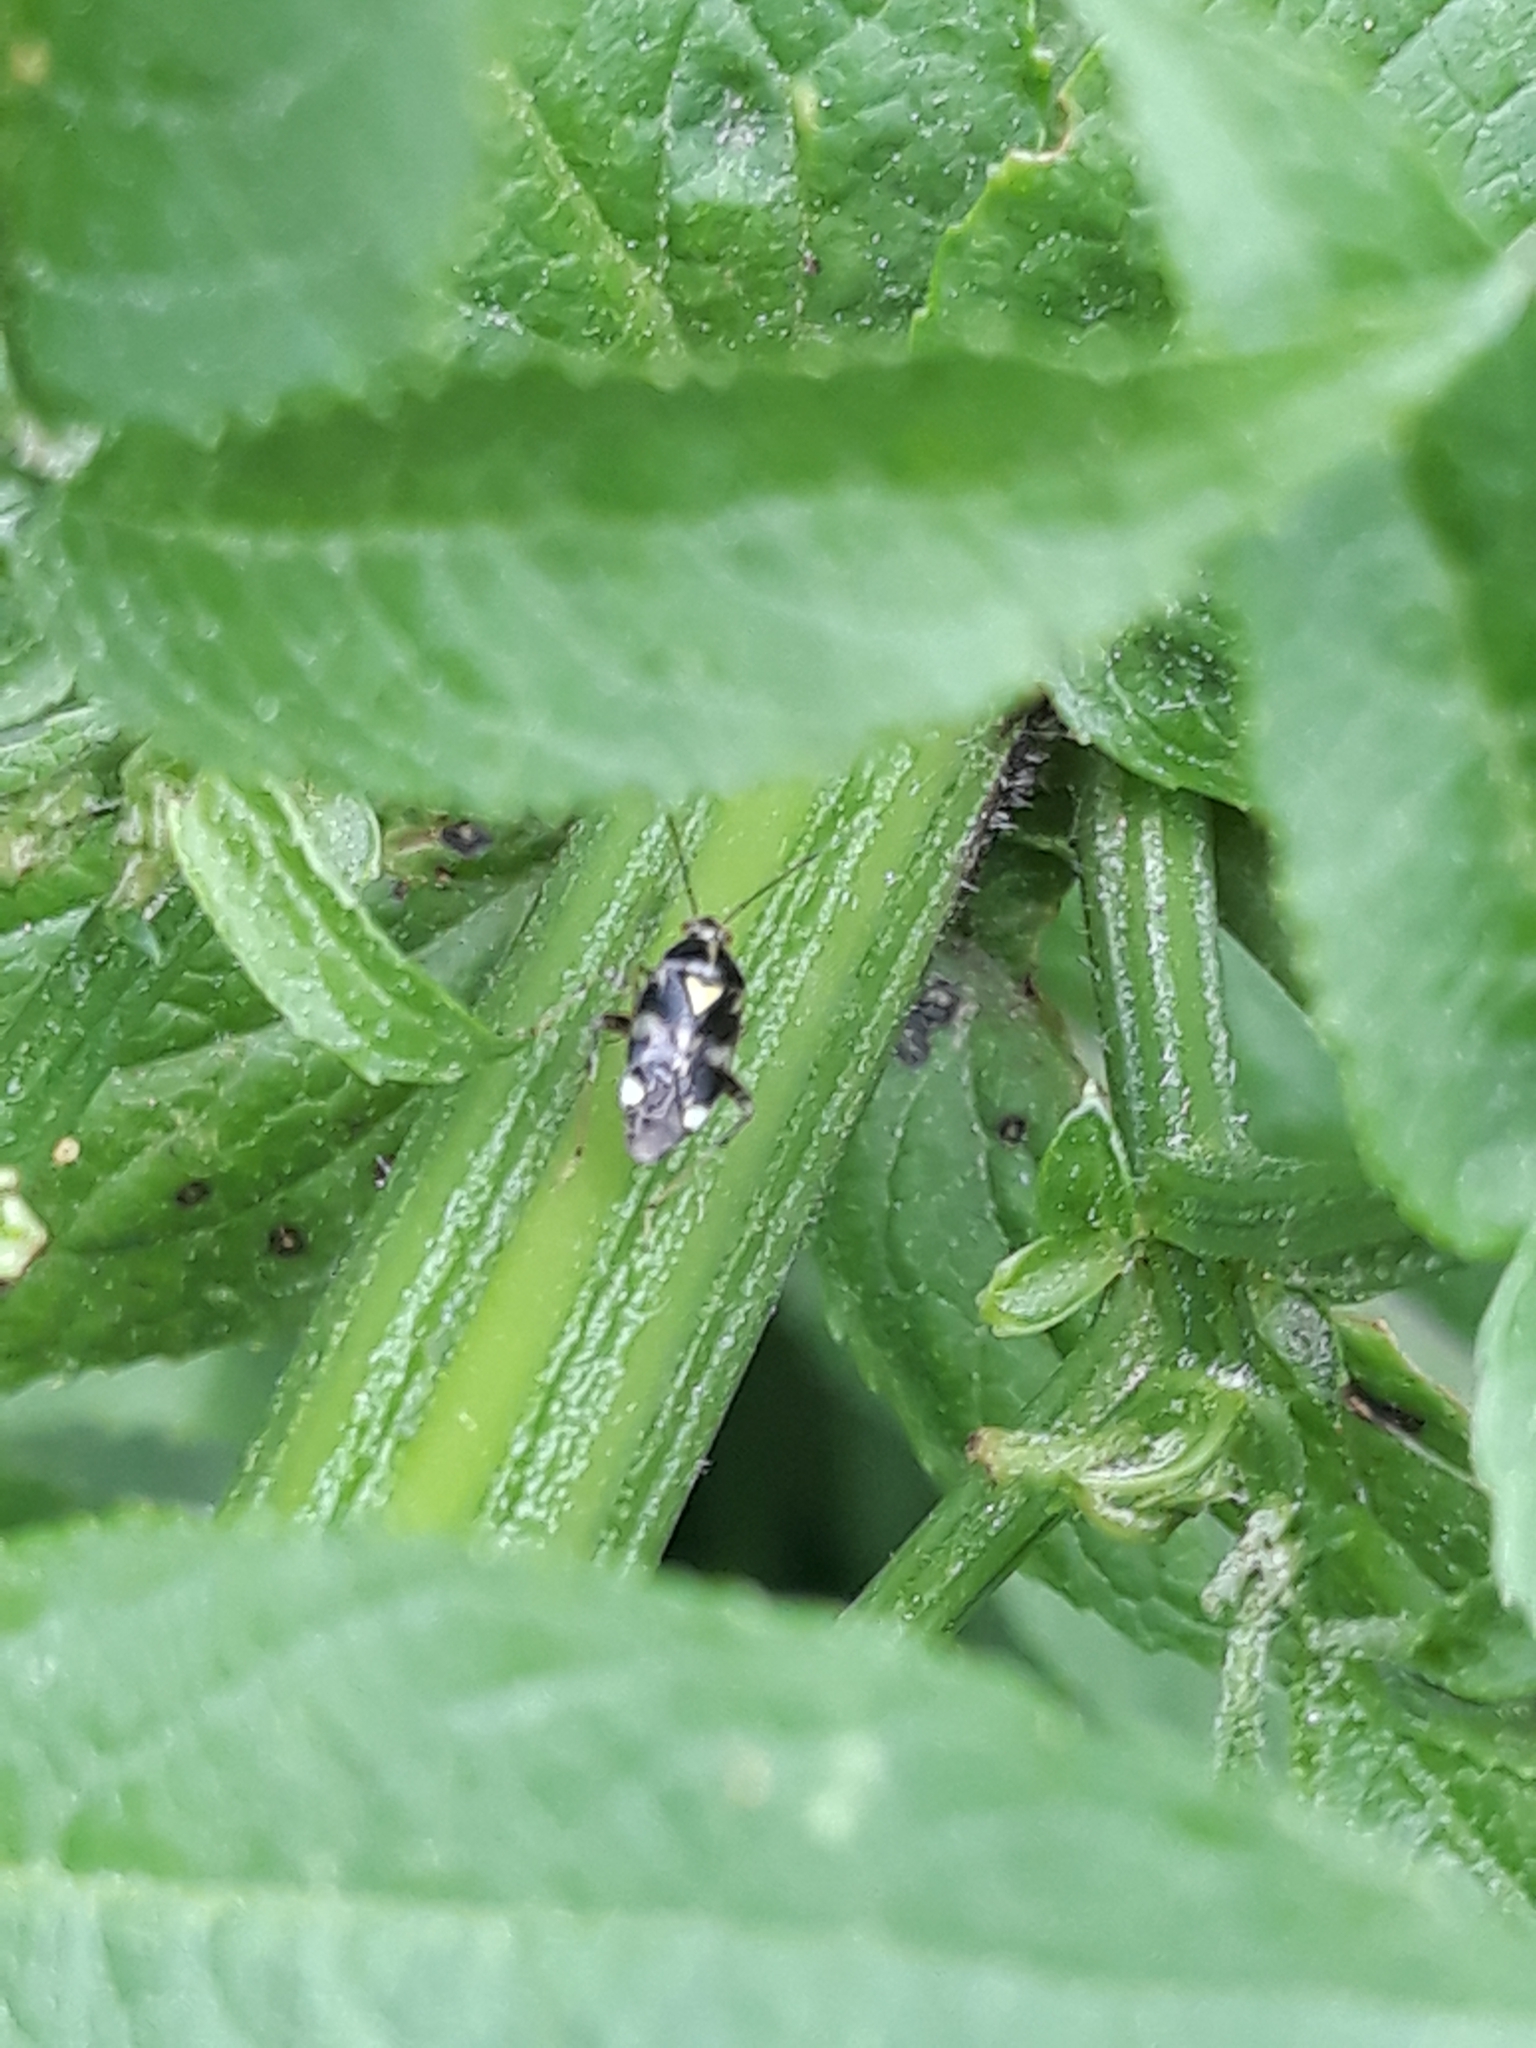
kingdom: Animalia
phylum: Arthropoda
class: Insecta
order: Hemiptera
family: Miridae
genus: Liocoris
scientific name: Liocoris tripustulatus
